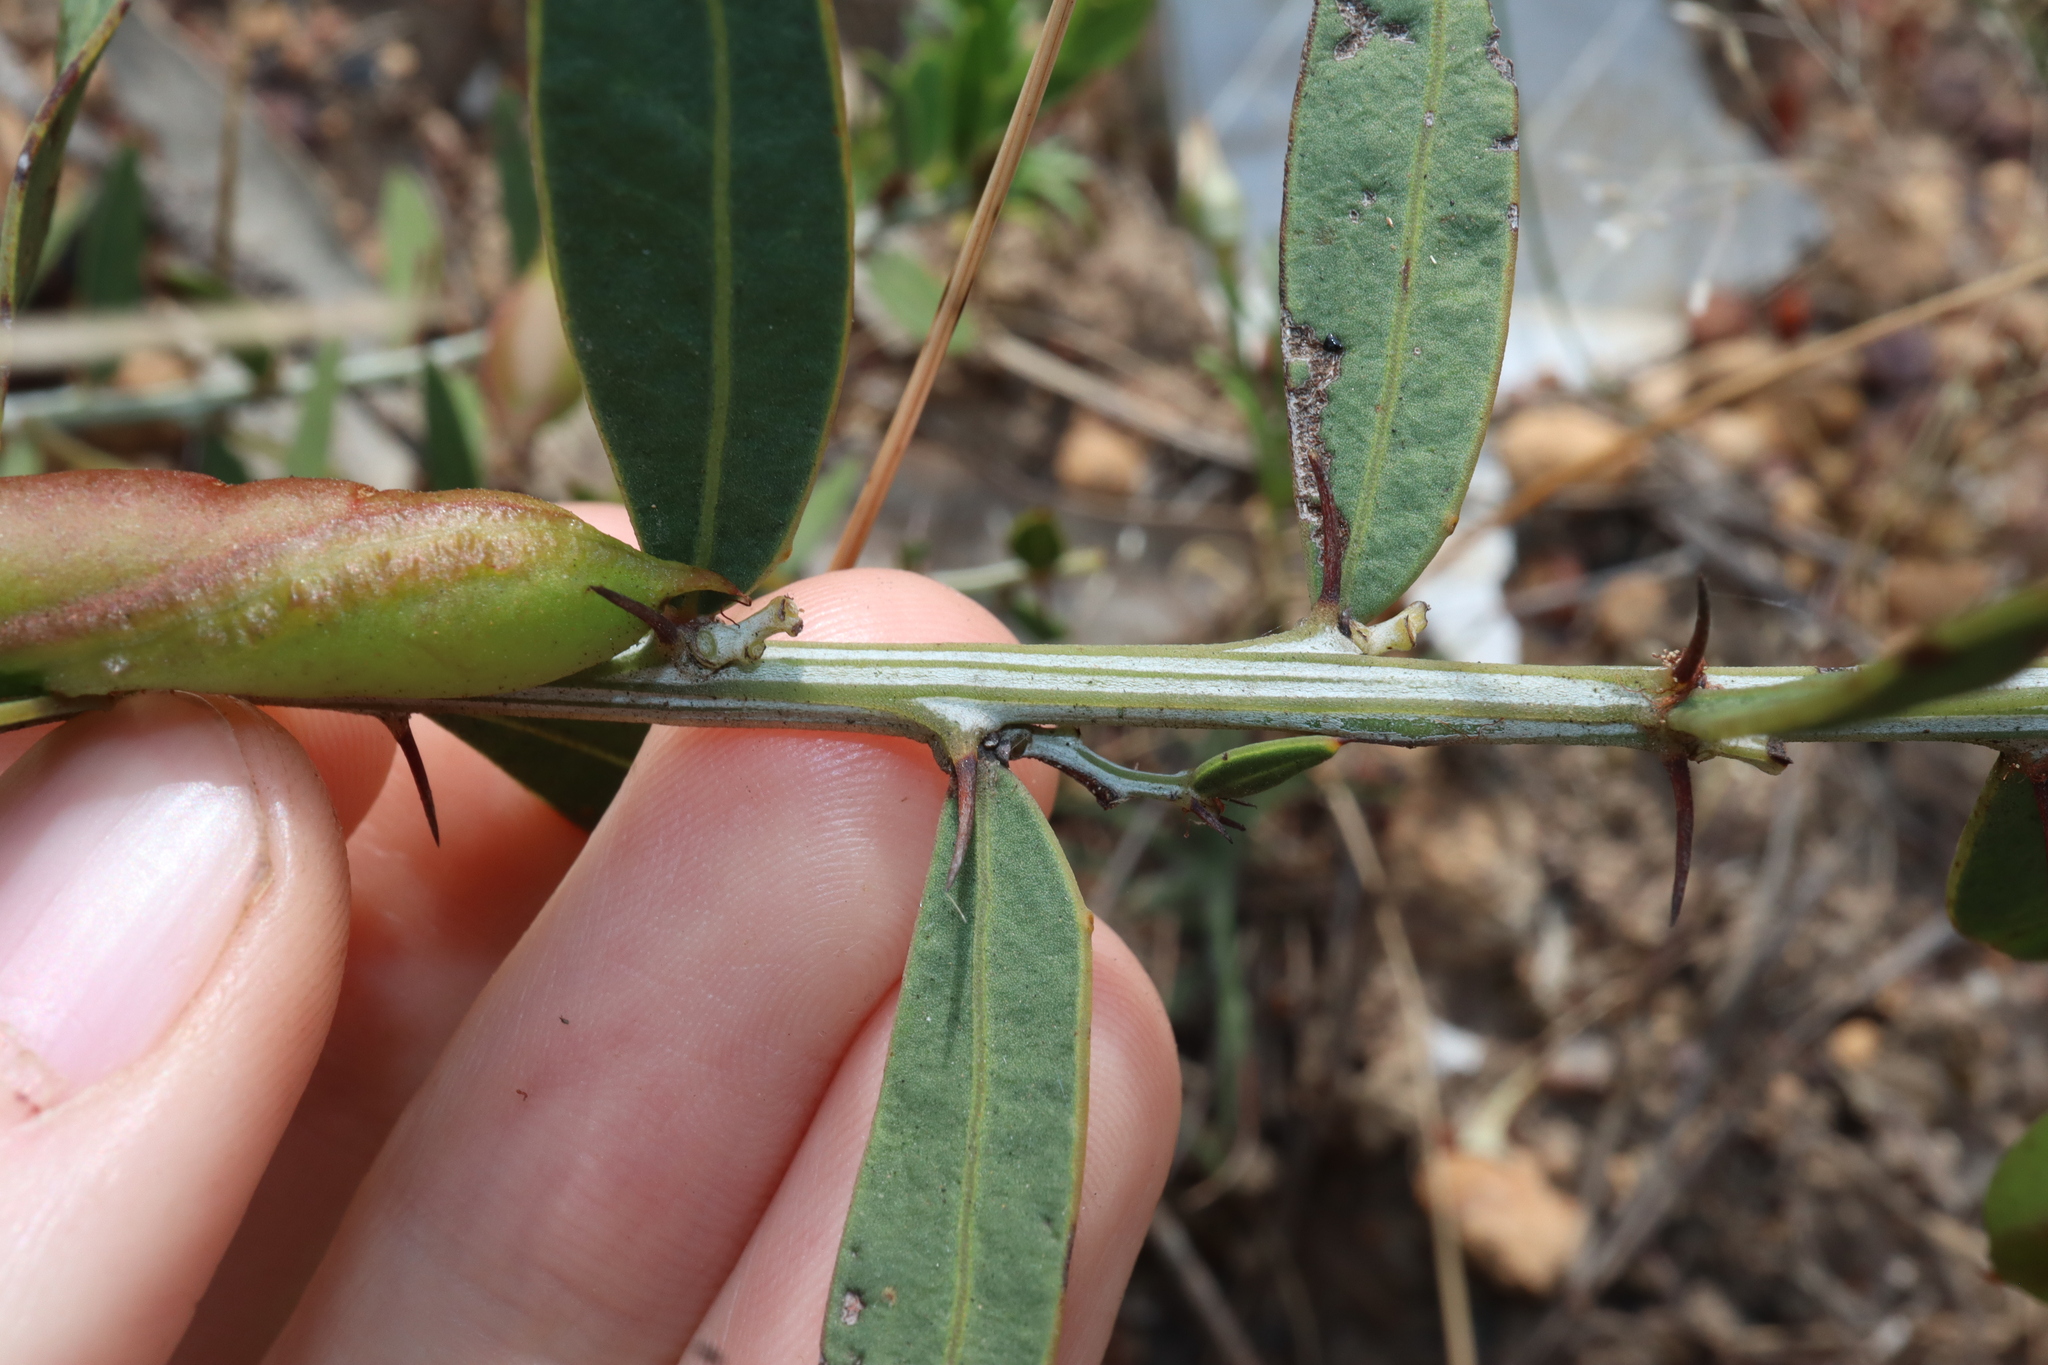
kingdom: Plantae
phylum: Tracheophyta
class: Magnoliopsida
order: Fabales
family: Fabaceae
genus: Acacia
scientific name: Acacia nervosa
